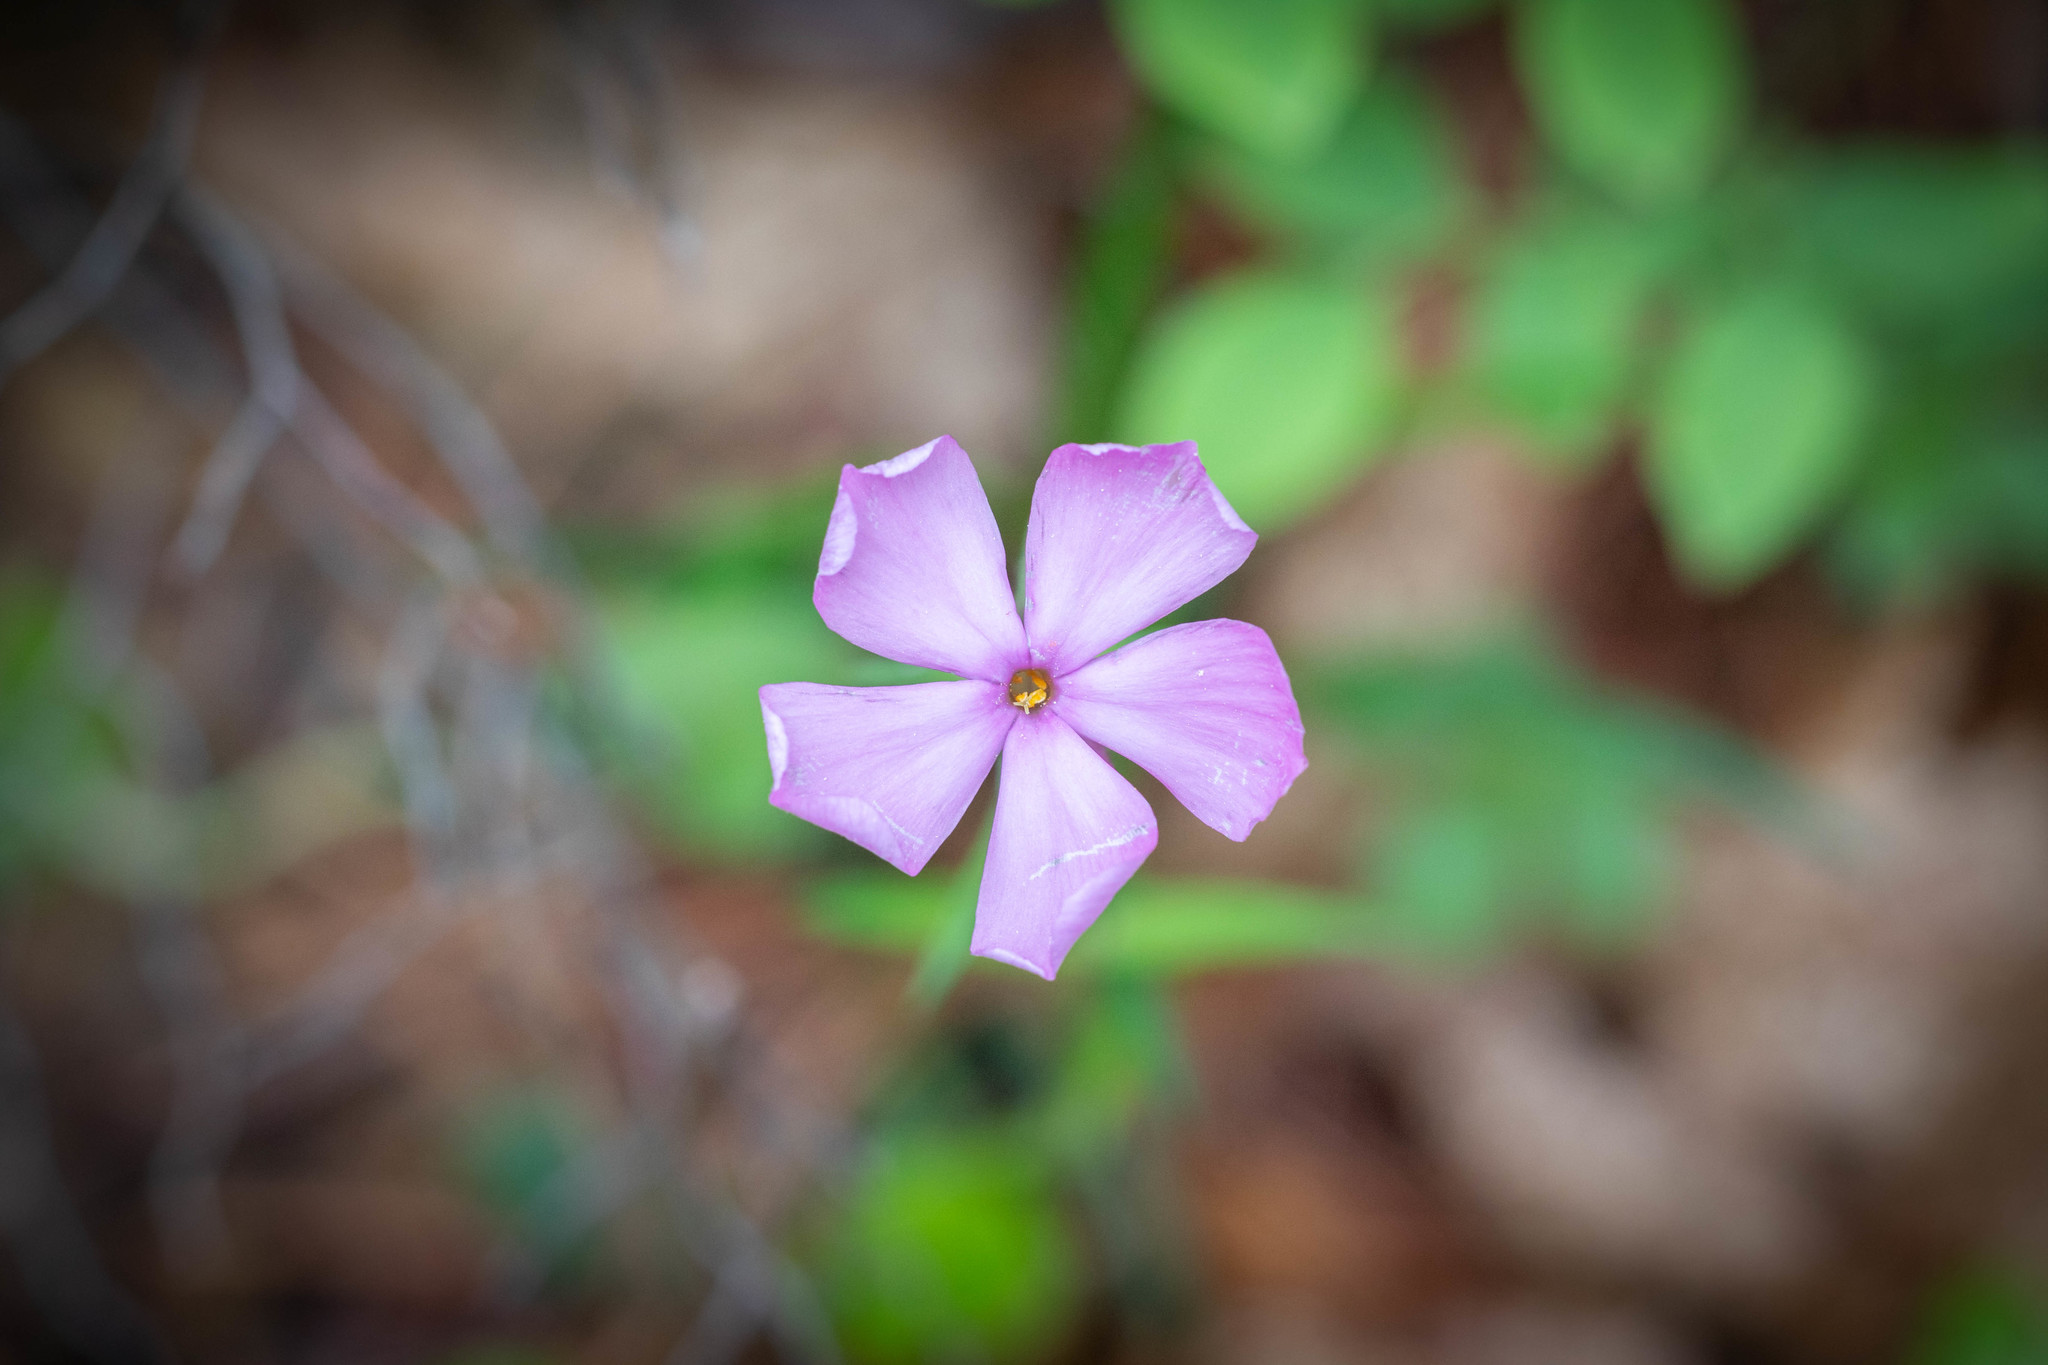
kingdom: Plantae
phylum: Tracheophyta
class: Magnoliopsida
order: Ericales
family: Polemoniaceae
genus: Phlox
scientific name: Phlox buckleyi
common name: Shale-barren phlox
